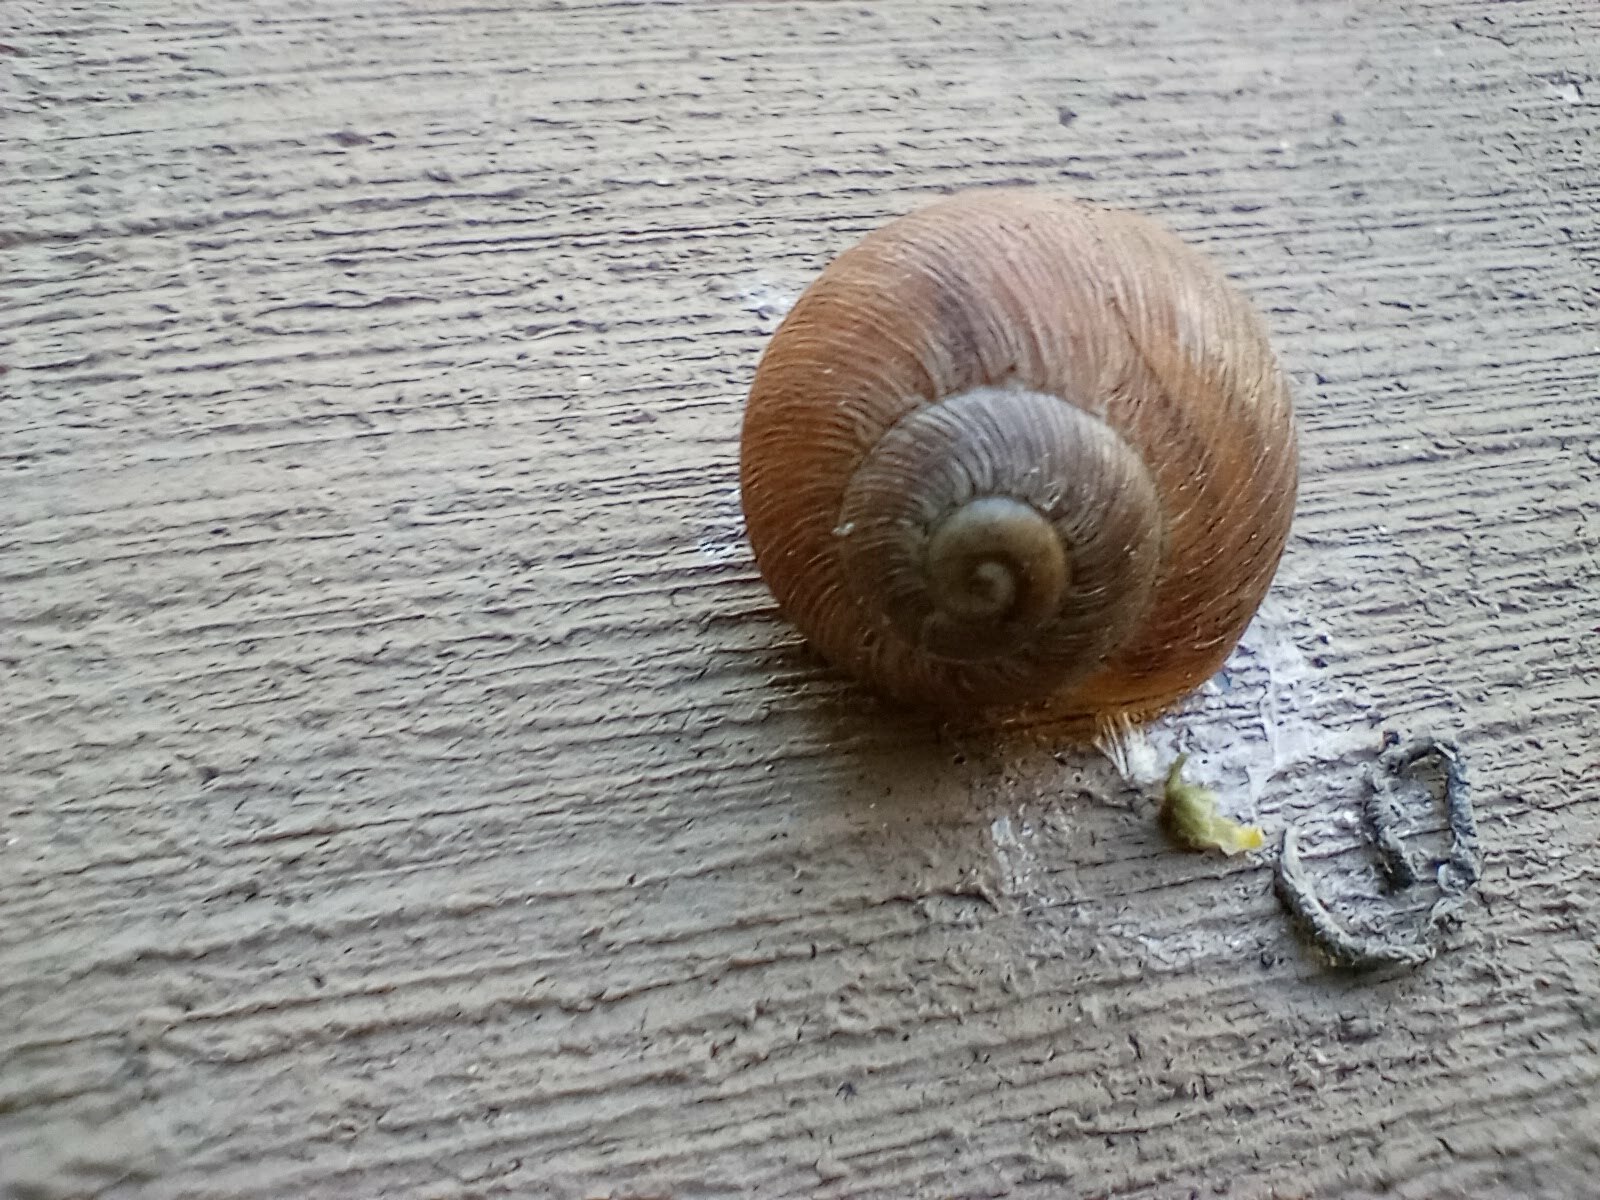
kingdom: Animalia
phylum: Mollusca
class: Gastropoda
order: Stylommatophora
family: Helicidae
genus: Cornu
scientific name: Cornu aspersum
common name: Brown garden snail
